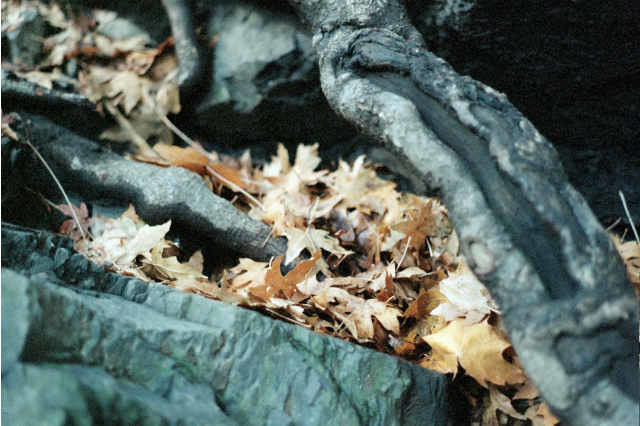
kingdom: Plantae
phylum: Tracheophyta
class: Magnoliopsida
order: Sapindales
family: Sapindaceae
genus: Acer
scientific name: Acer macrophyllum
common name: Oregon maple
